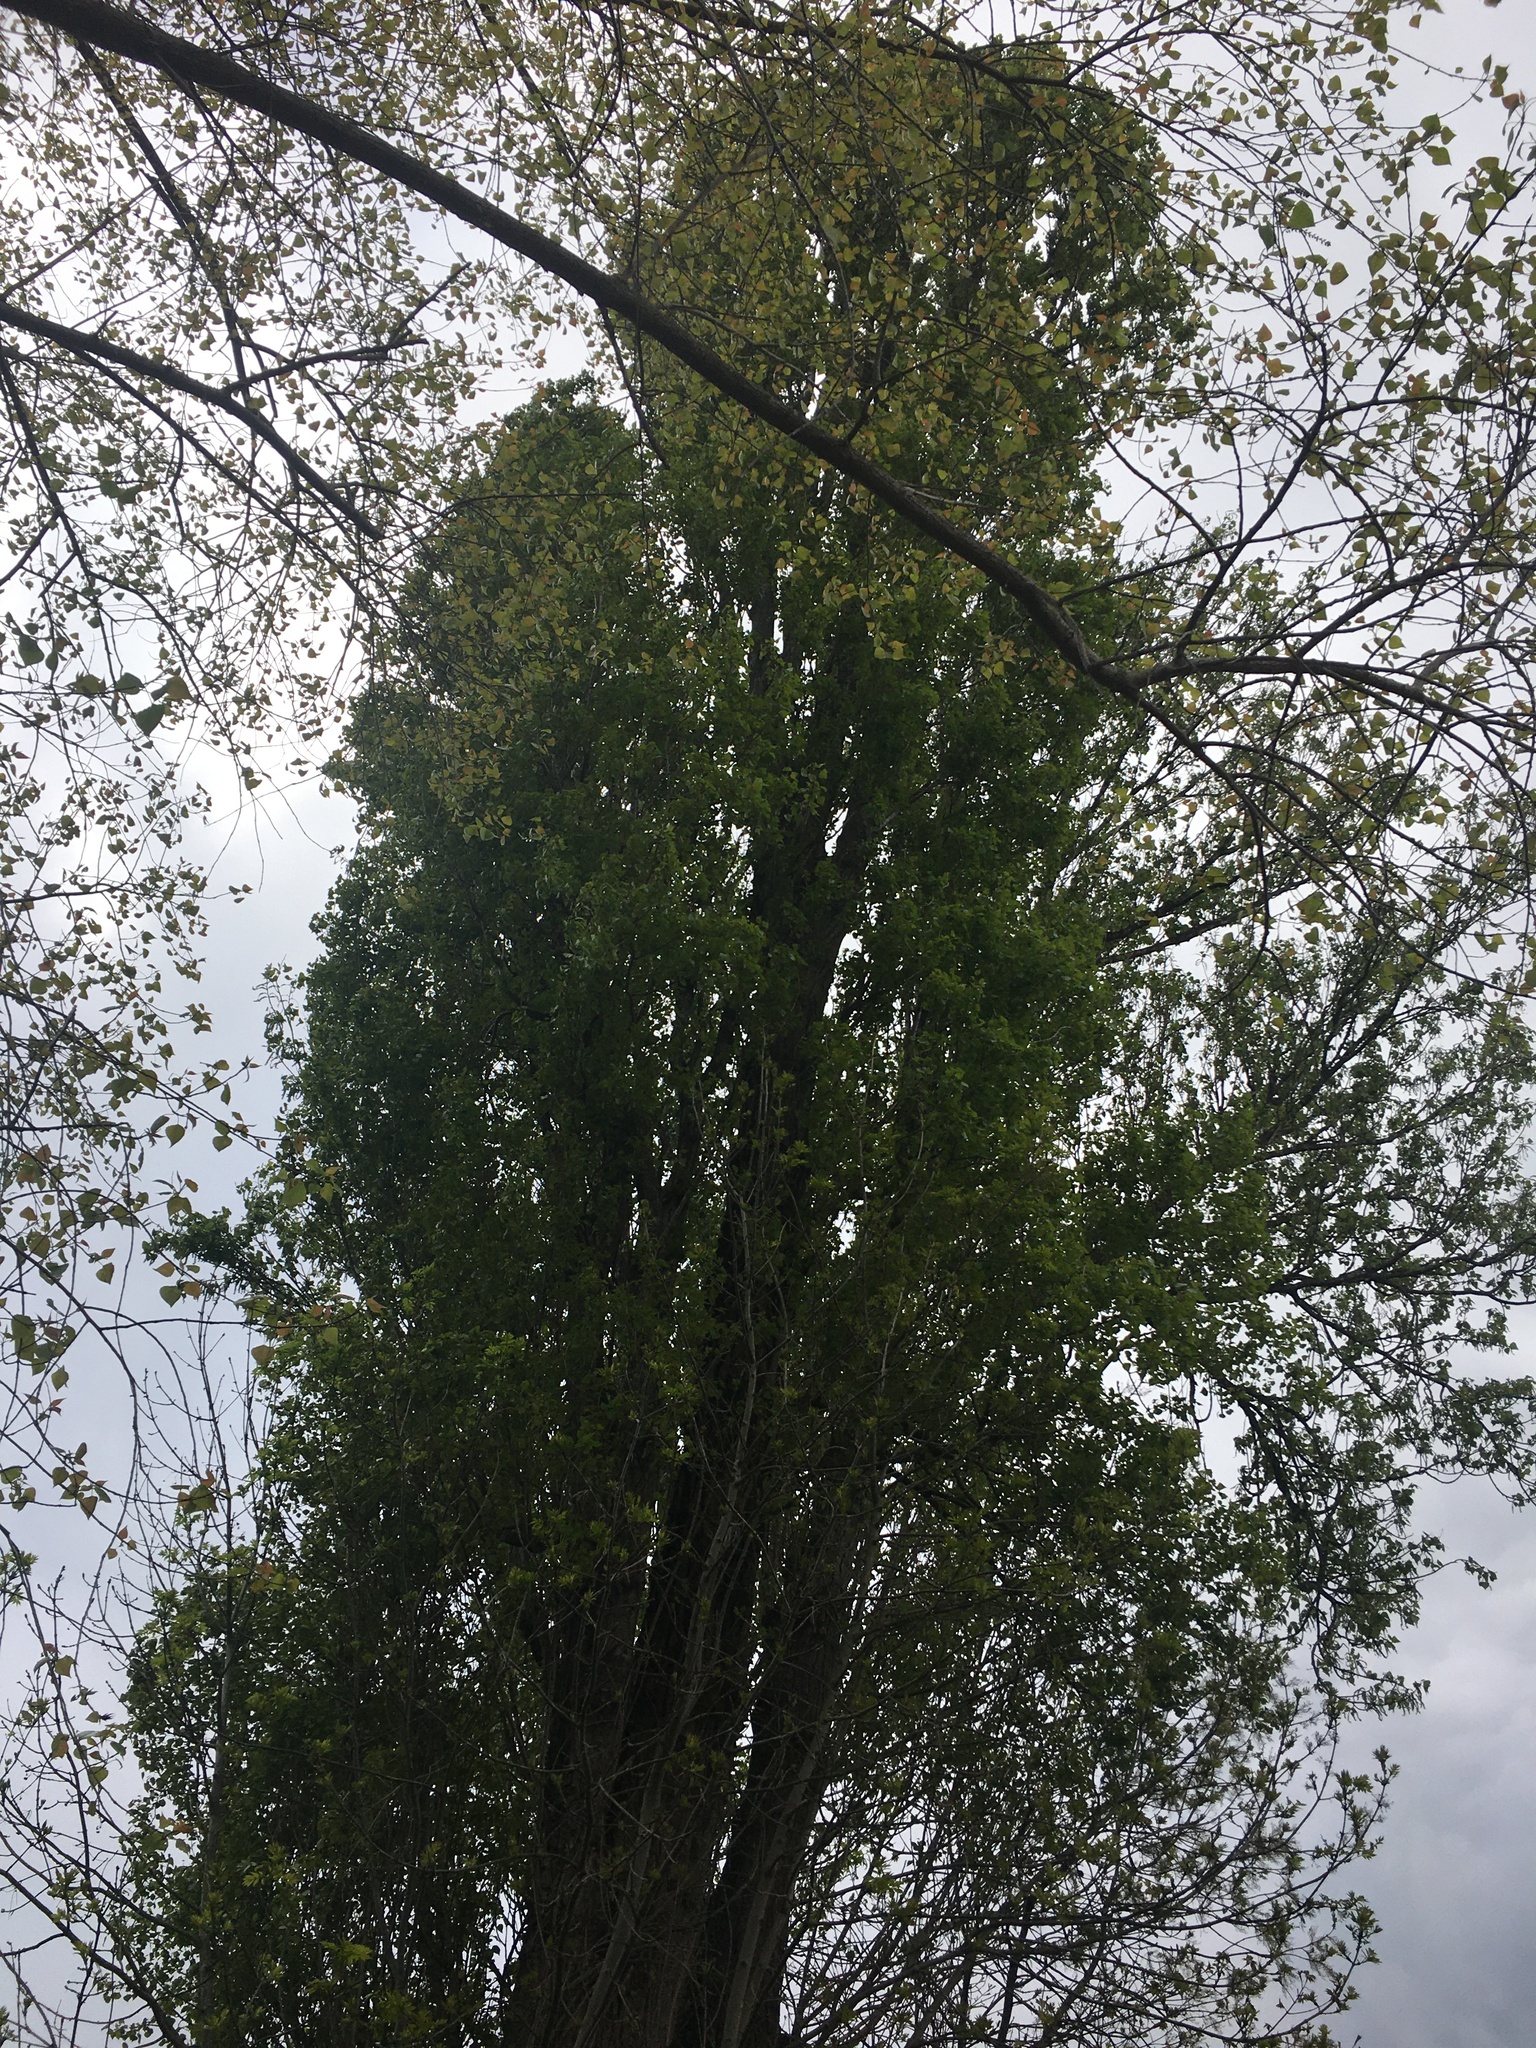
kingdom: Plantae
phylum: Tracheophyta
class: Magnoliopsida
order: Malpighiales
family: Salicaceae
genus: Populus
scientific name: Populus nigra
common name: Black poplar
